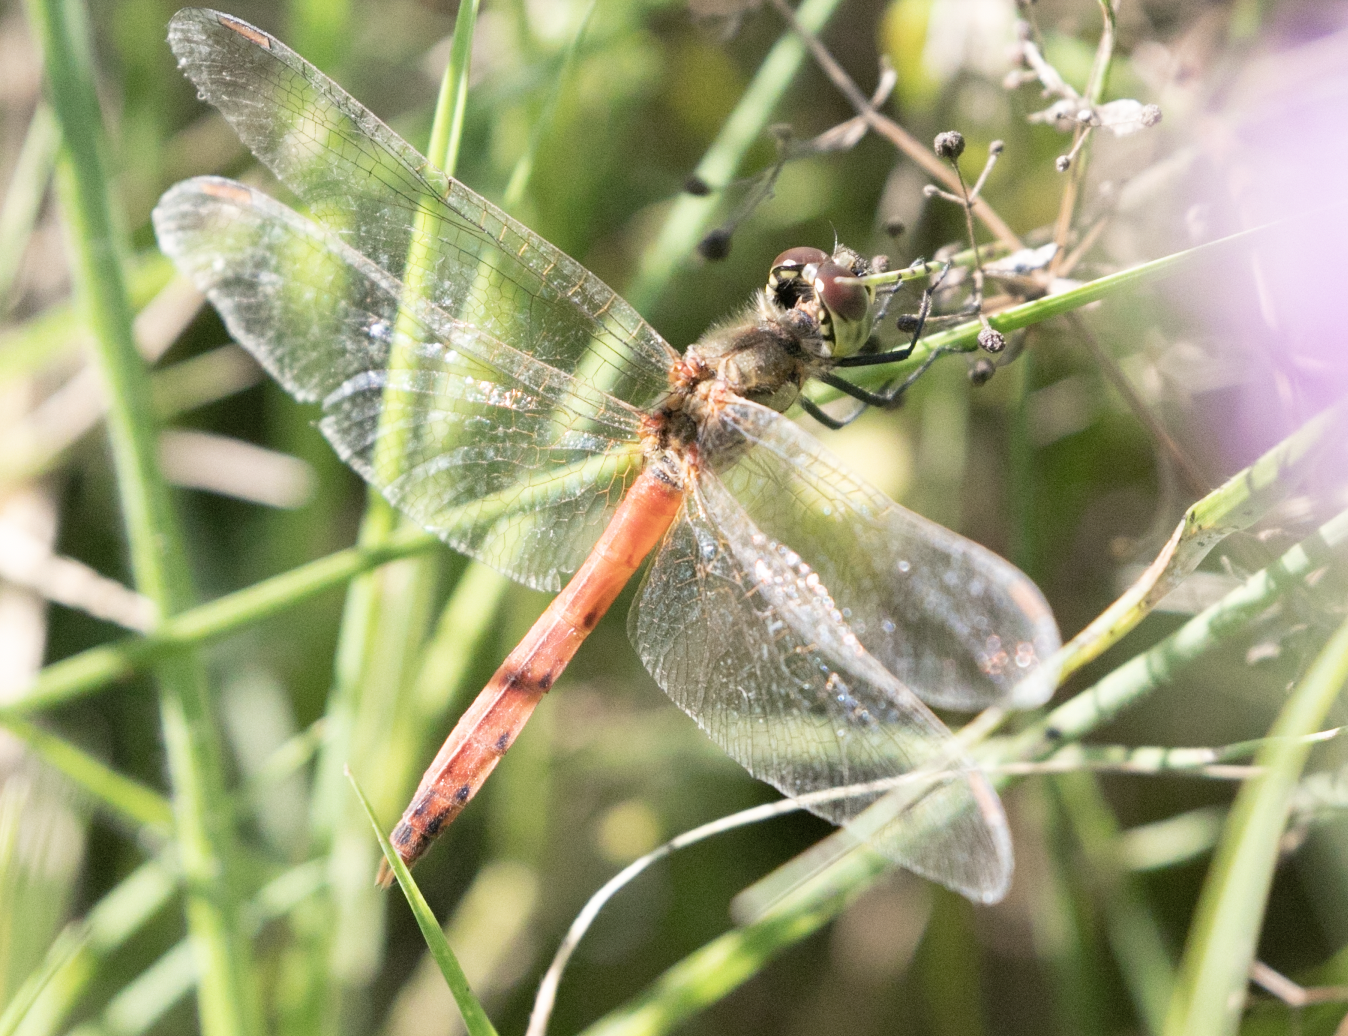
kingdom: Animalia
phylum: Arthropoda
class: Insecta
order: Odonata
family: Libellulidae
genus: Sympetrum
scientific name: Sympetrum depressiusculum
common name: Spotted darter
